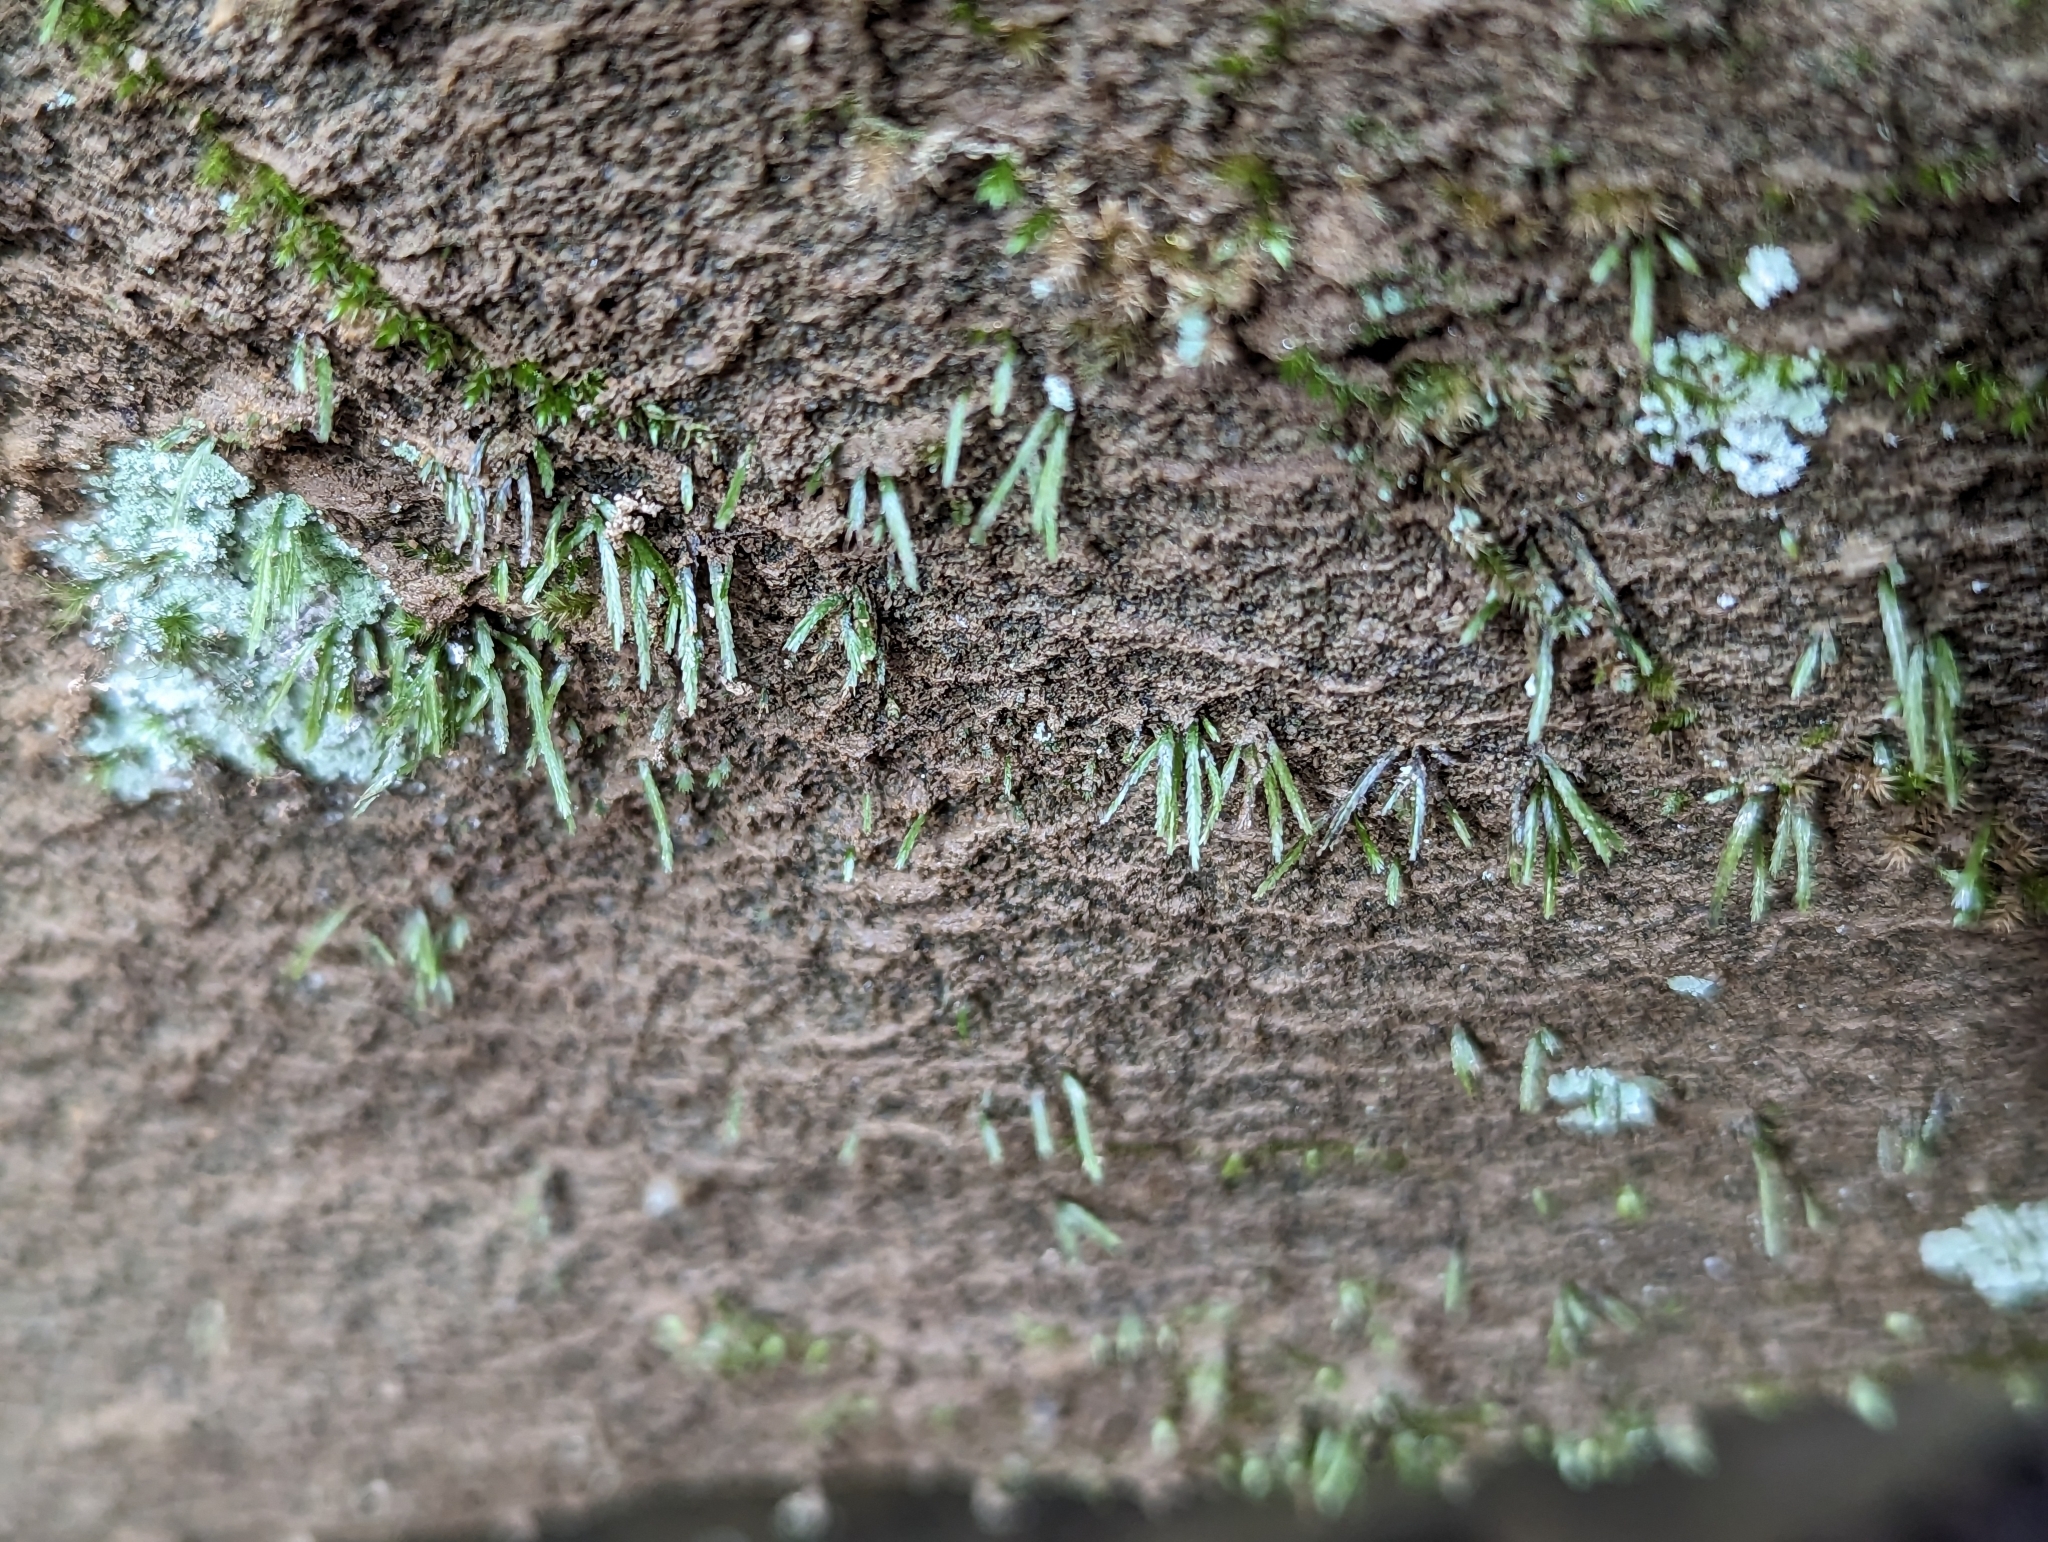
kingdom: Plantae
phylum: Bryophyta
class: Bryopsida
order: Bryoxiphiales
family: Bryoxiphiaceae
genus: Bryoxiphium
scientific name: Bryoxiphium norvegicum
